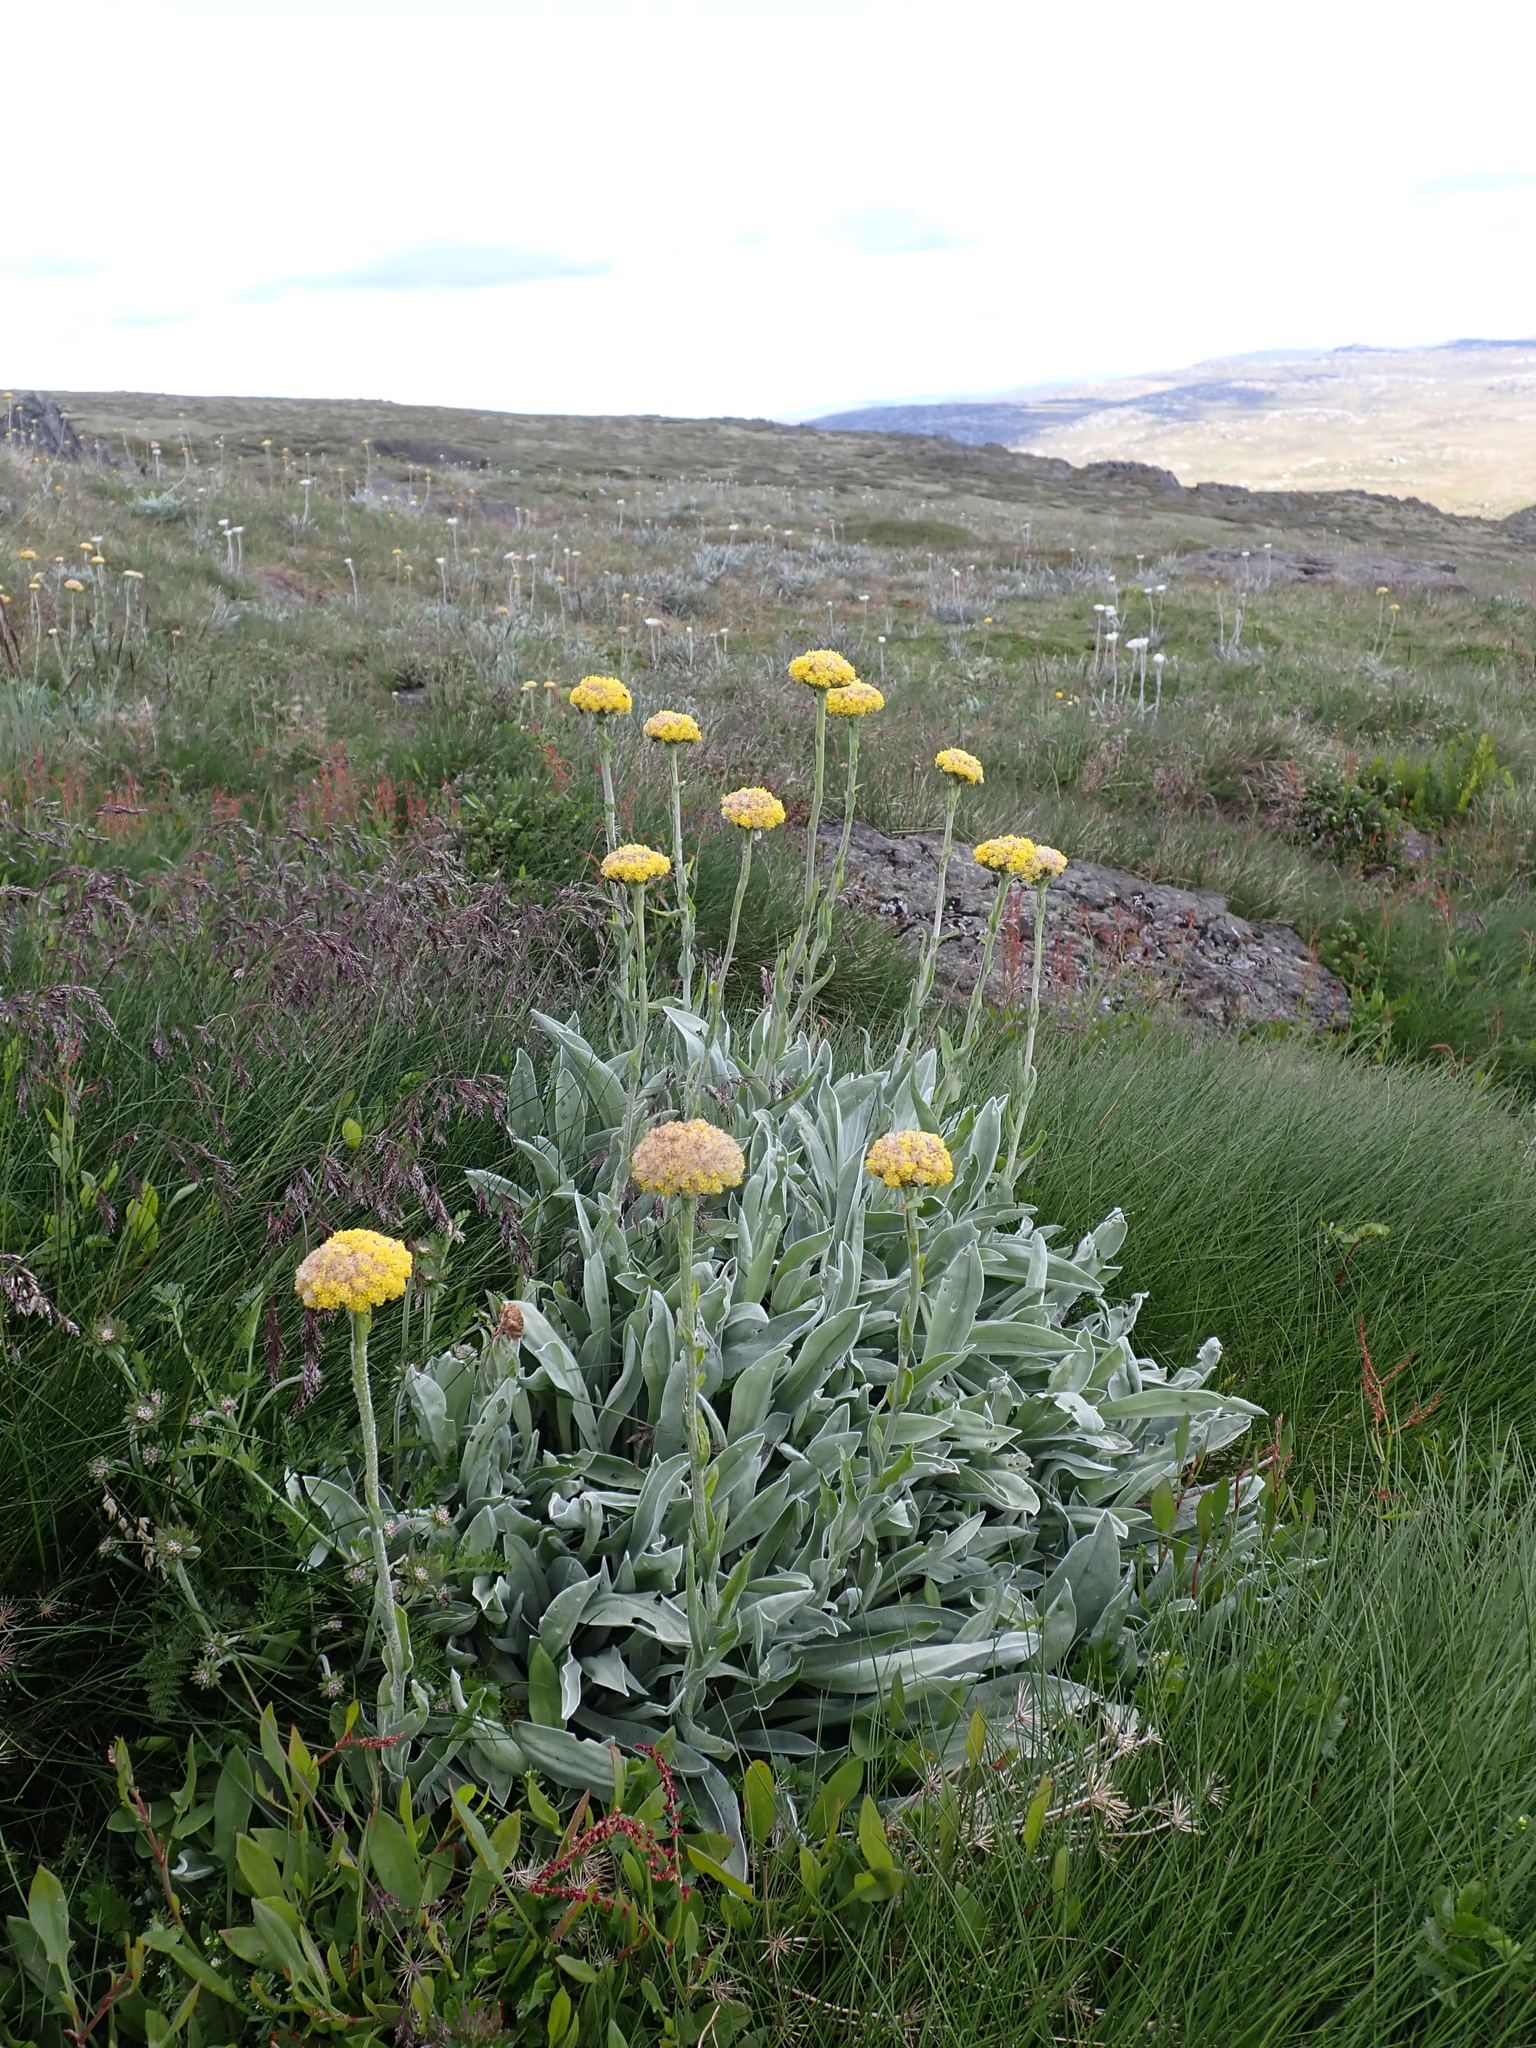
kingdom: Plantae
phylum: Tracheophyta
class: Magnoliopsida
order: Asterales
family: Asteraceae
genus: Craspedia
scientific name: Craspedia maxgrayi
